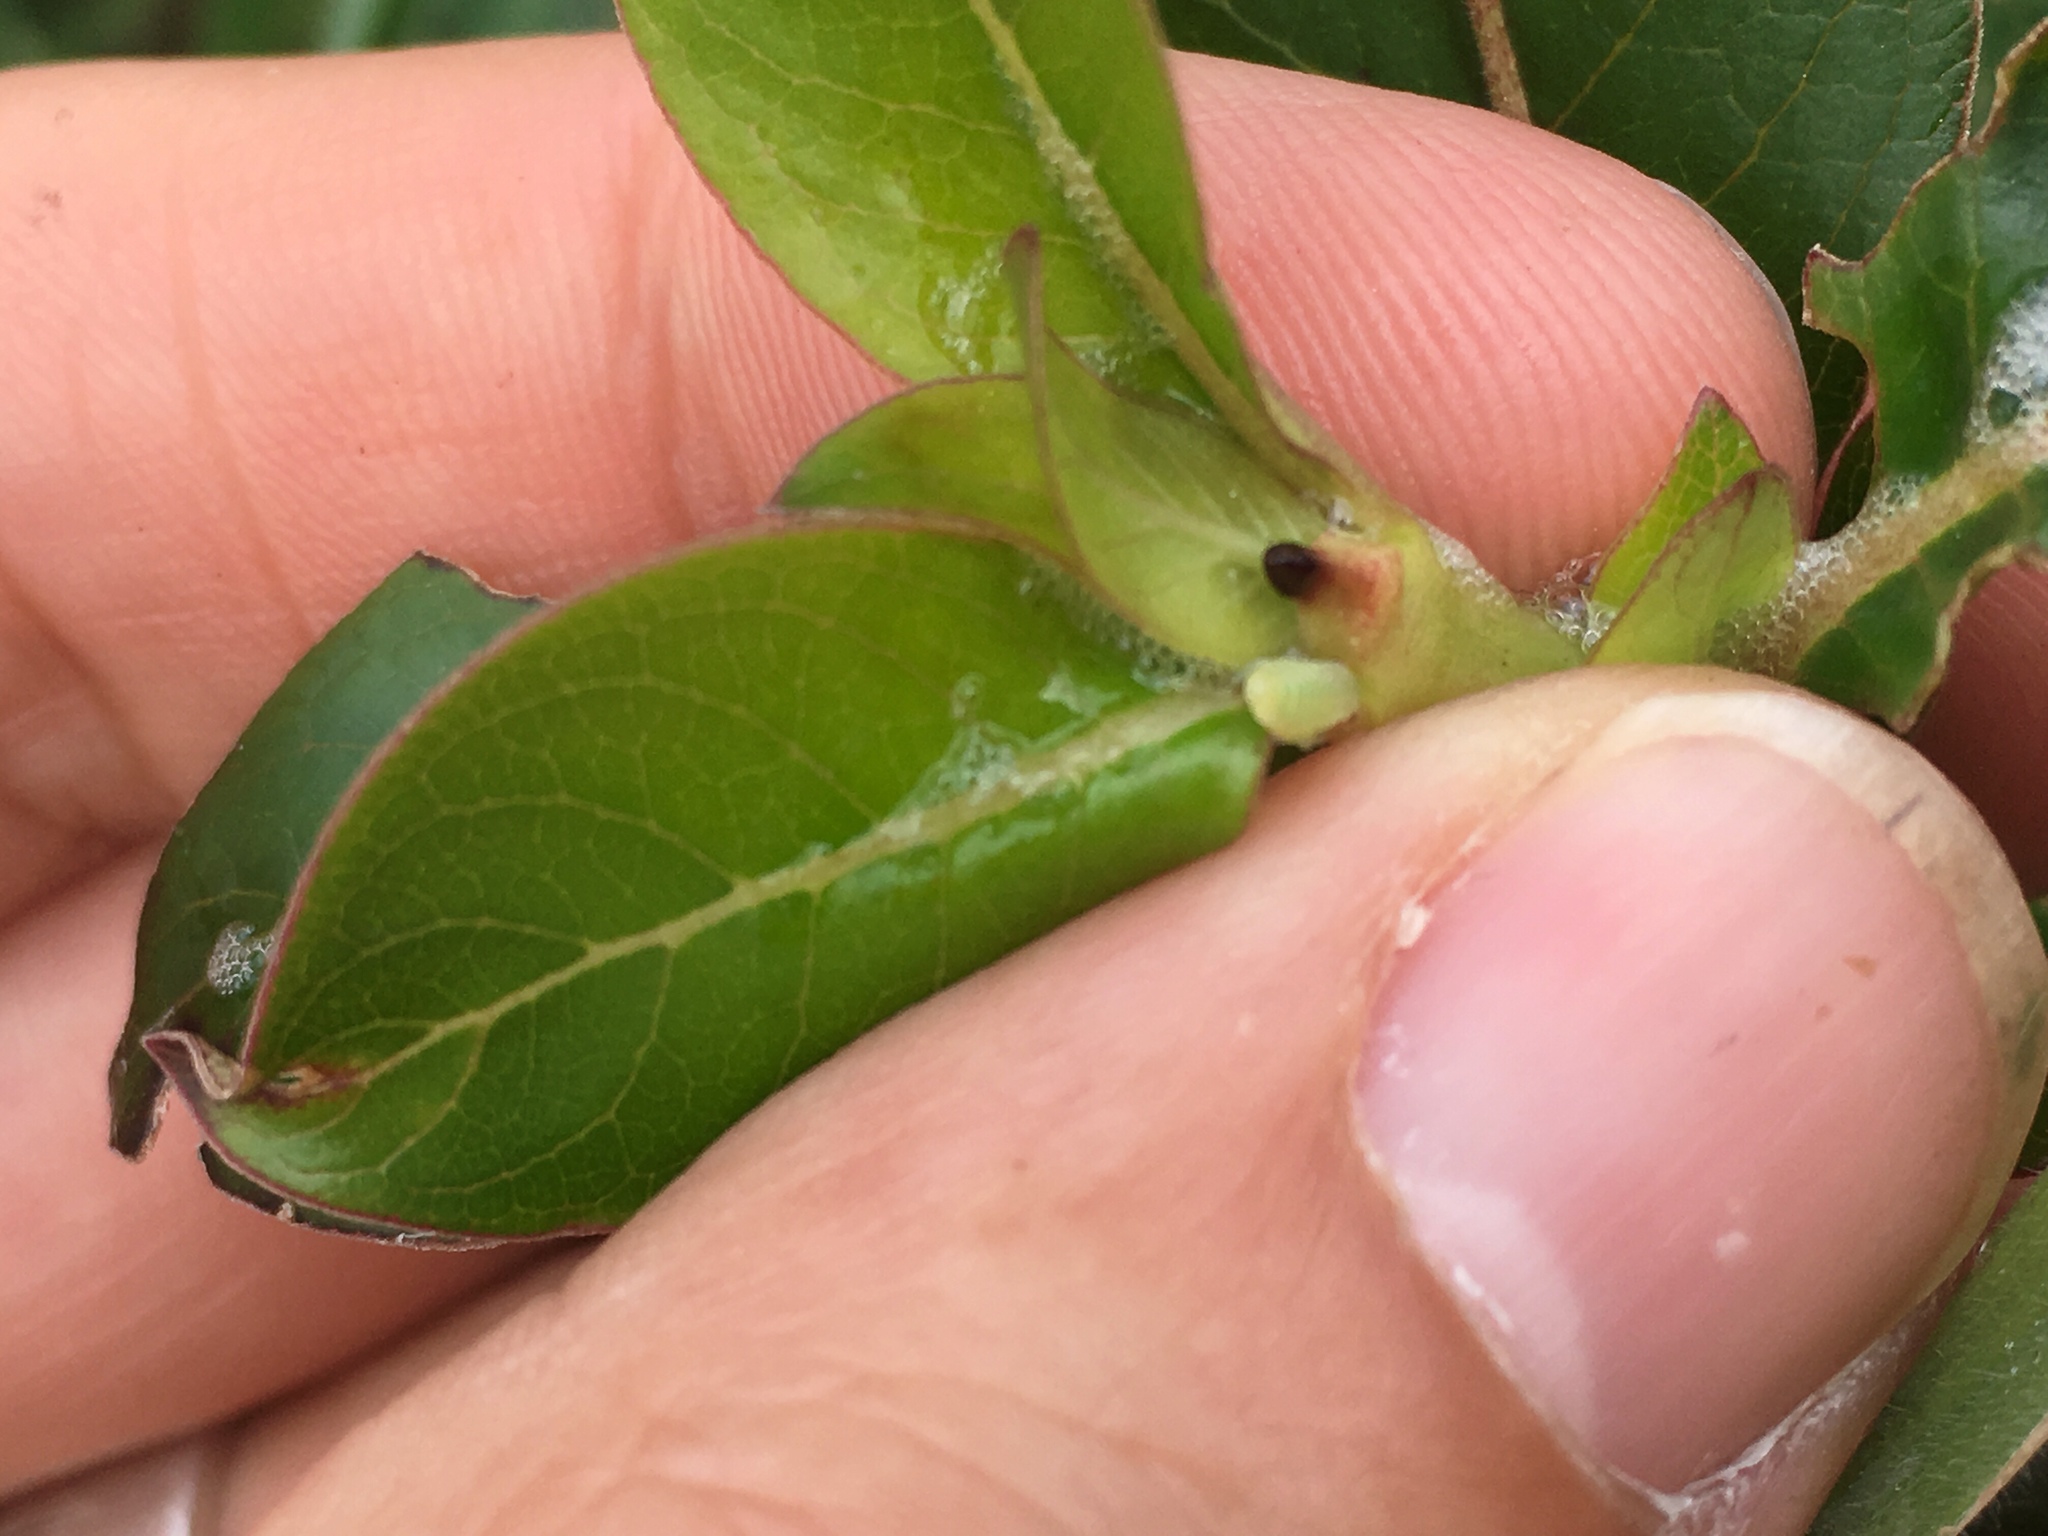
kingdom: Plantae
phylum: Tracheophyta
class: Magnoliopsida
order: Gentianales
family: Rubiaceae
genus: Coprosma
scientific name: Coprosma robusta
